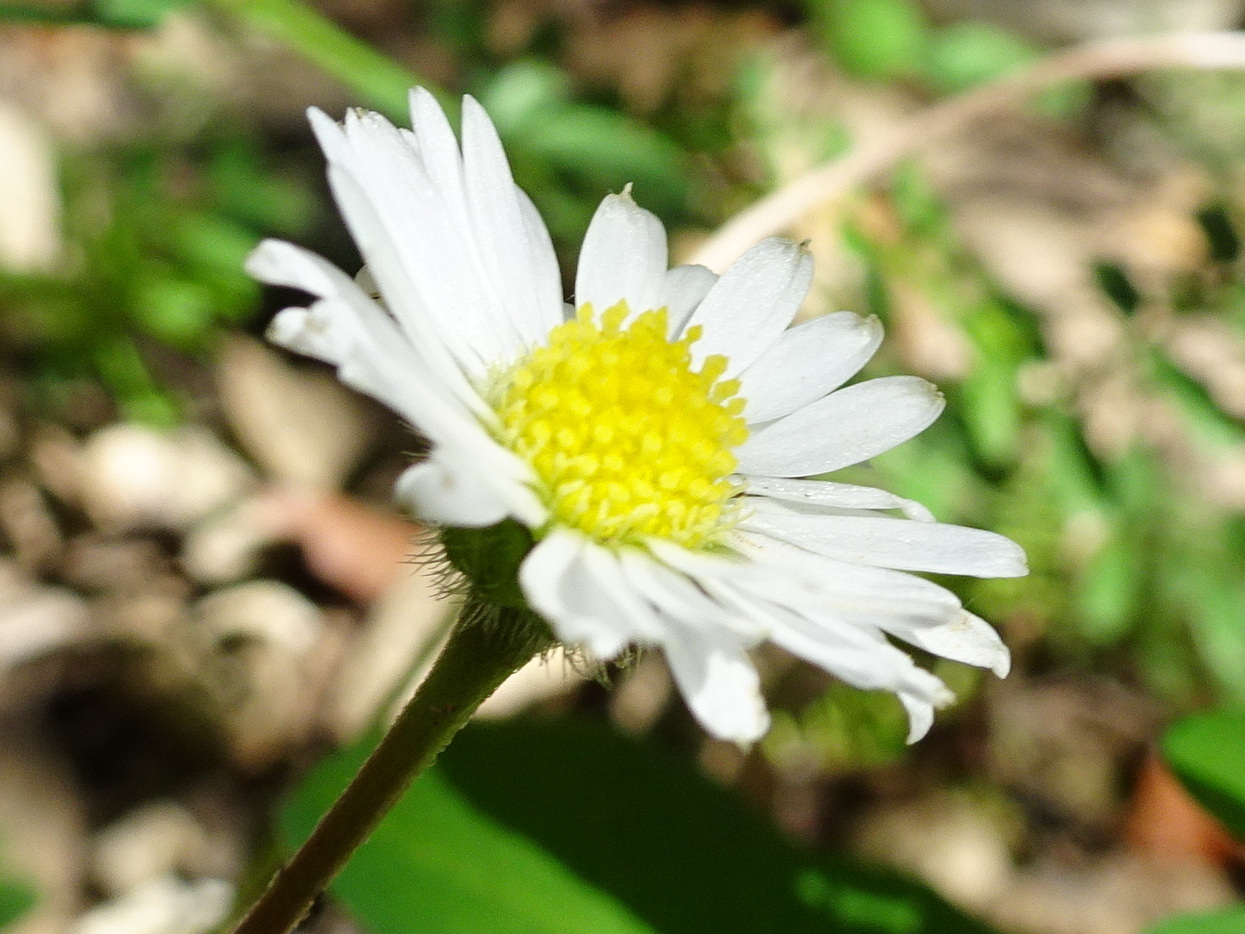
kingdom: Plantae
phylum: Tracheophyta
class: Magnoliopsida
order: Asterales
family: Asteraceae
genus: Bellis
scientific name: Bellis perennis
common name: Lawndaisy
